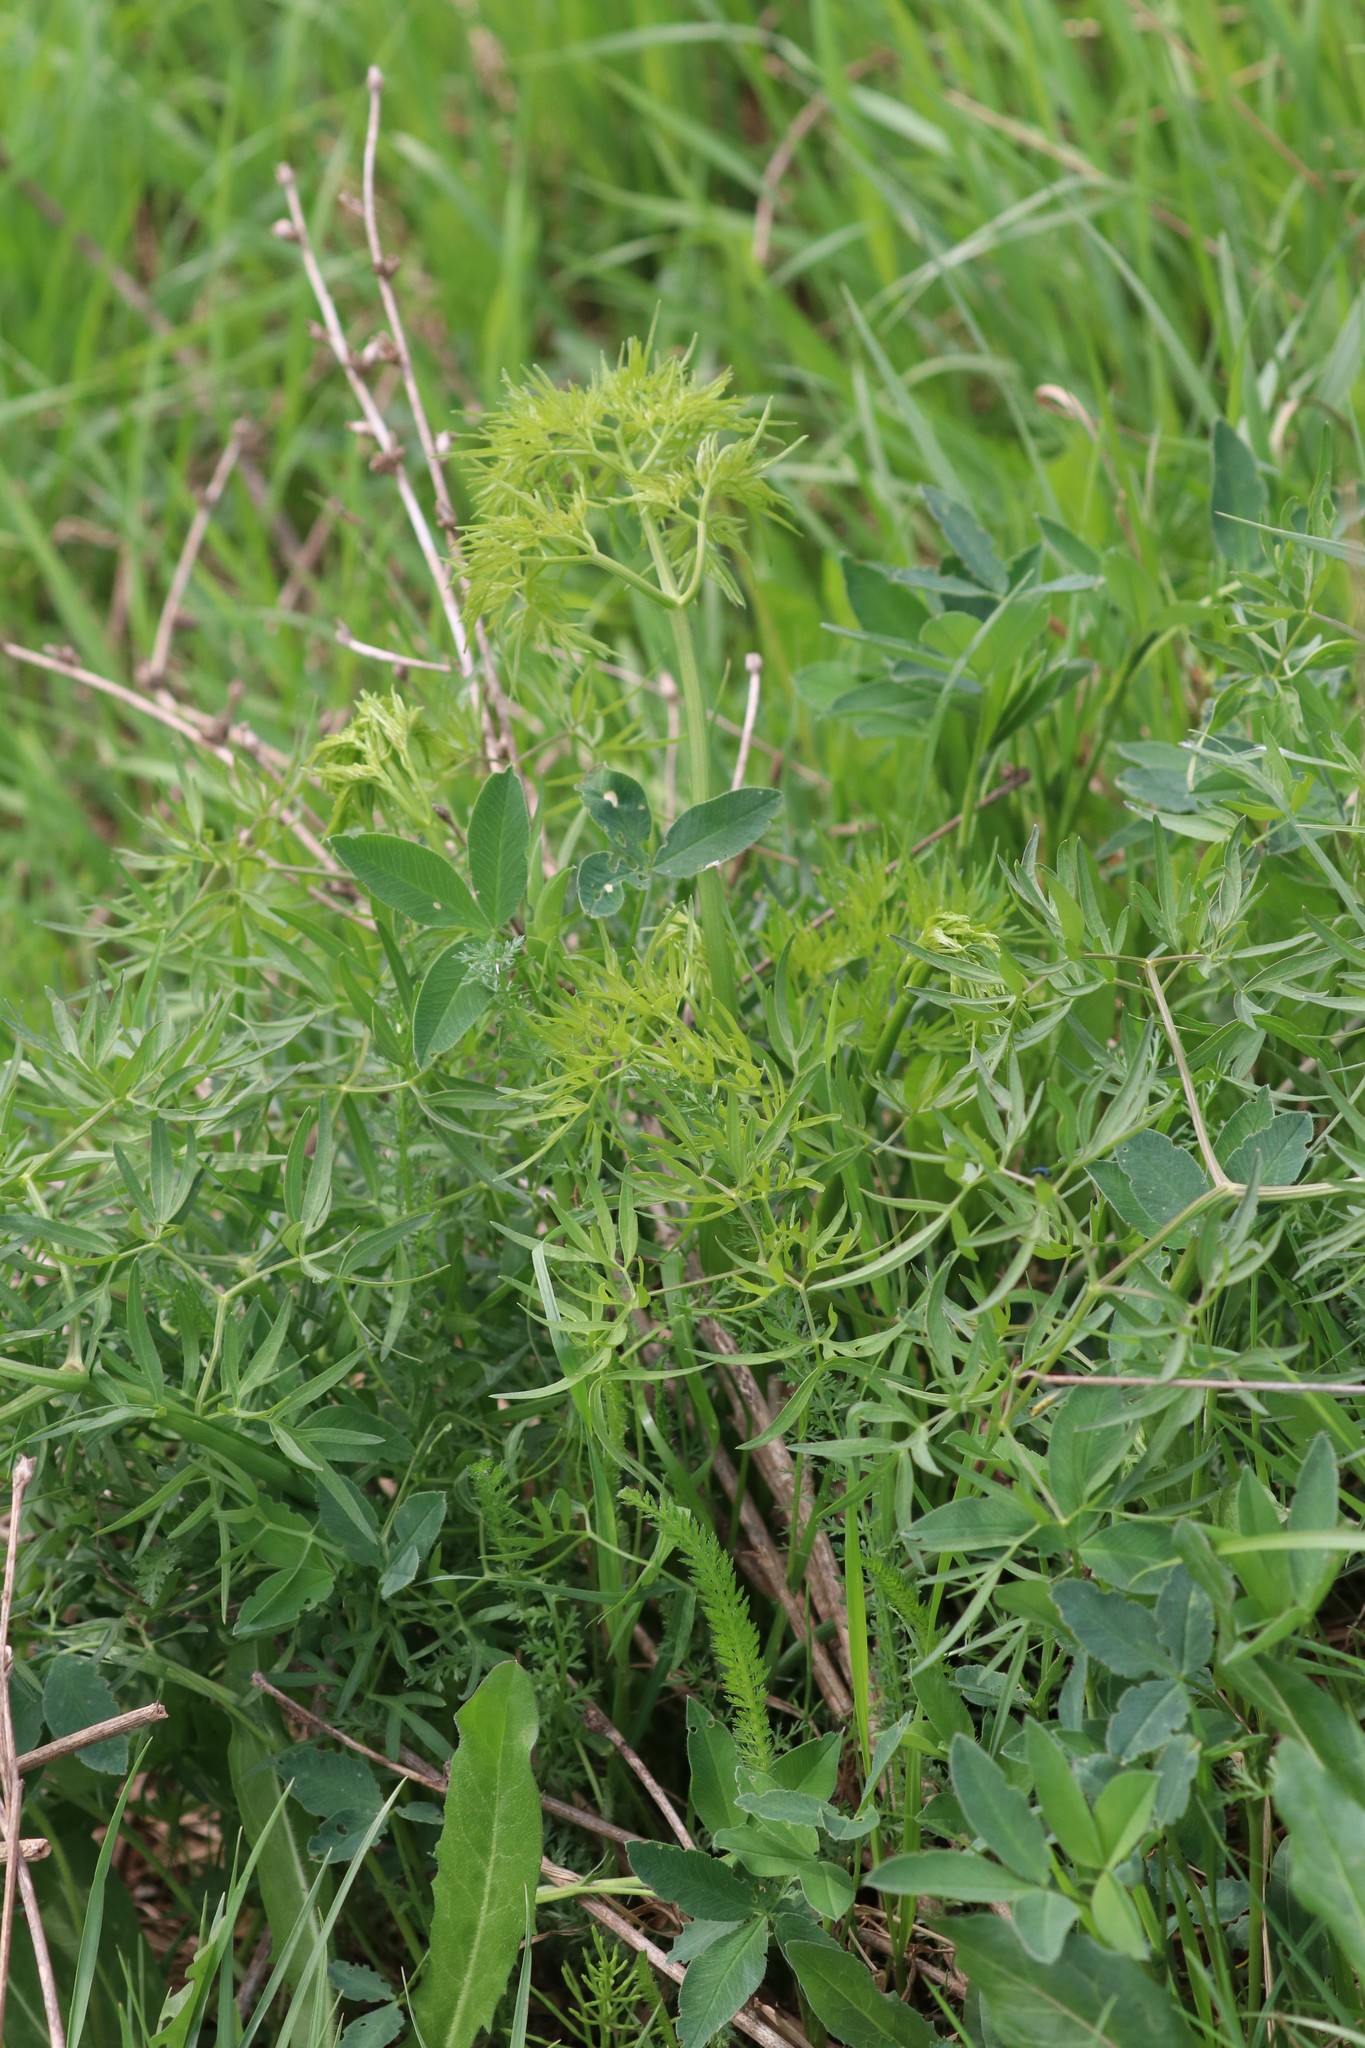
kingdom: Plantae
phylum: Tracheophyta
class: Magnoliopsida
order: Apiales
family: Apiaceae
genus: Cenolophium
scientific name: Cenolophium fischeri
